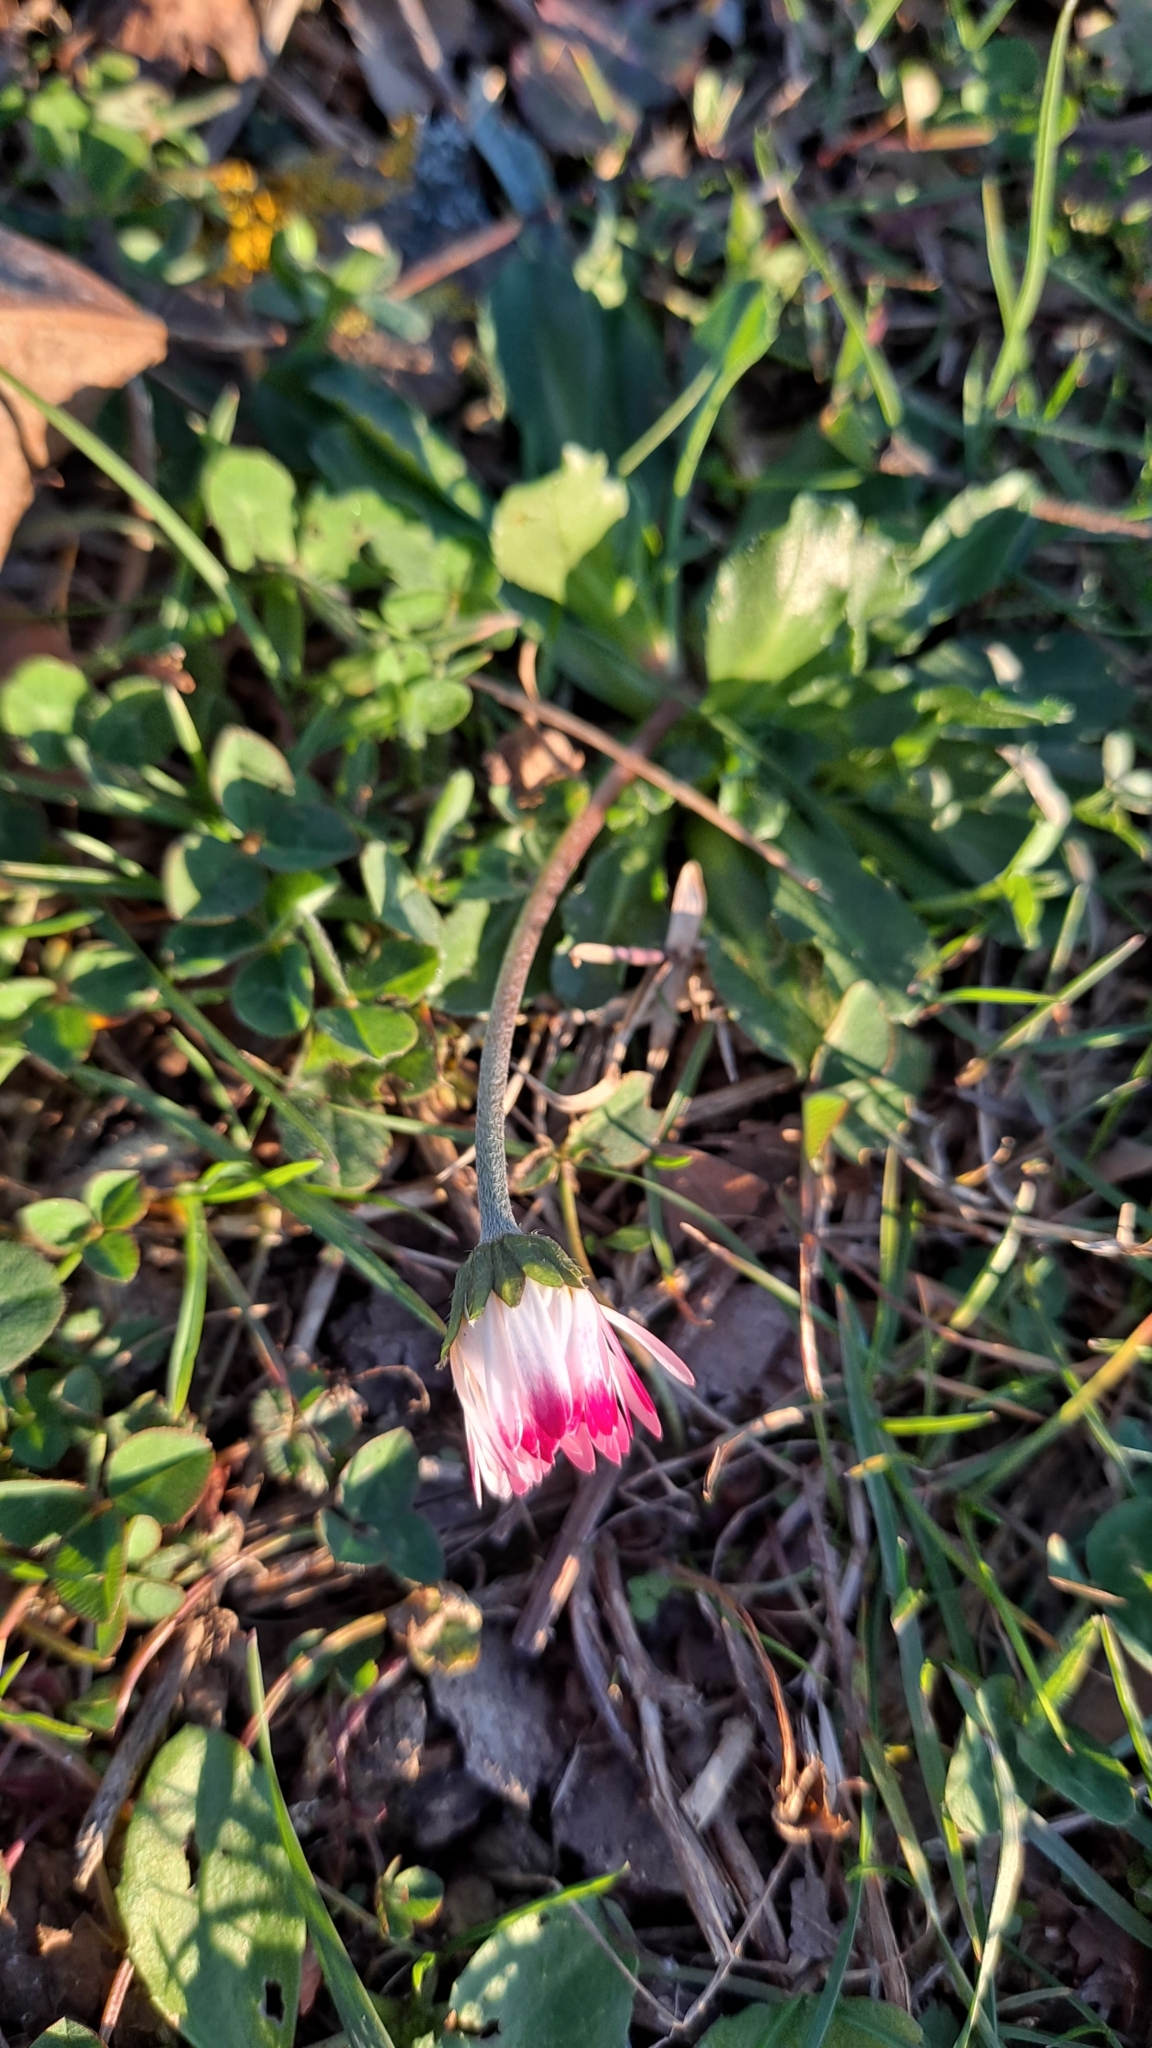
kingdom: Plantae
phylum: Tracheophyta
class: Magnoliopsida
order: Asterales
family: Asteraceae
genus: Bellis
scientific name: Bellis perennis
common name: Lawndaisy
